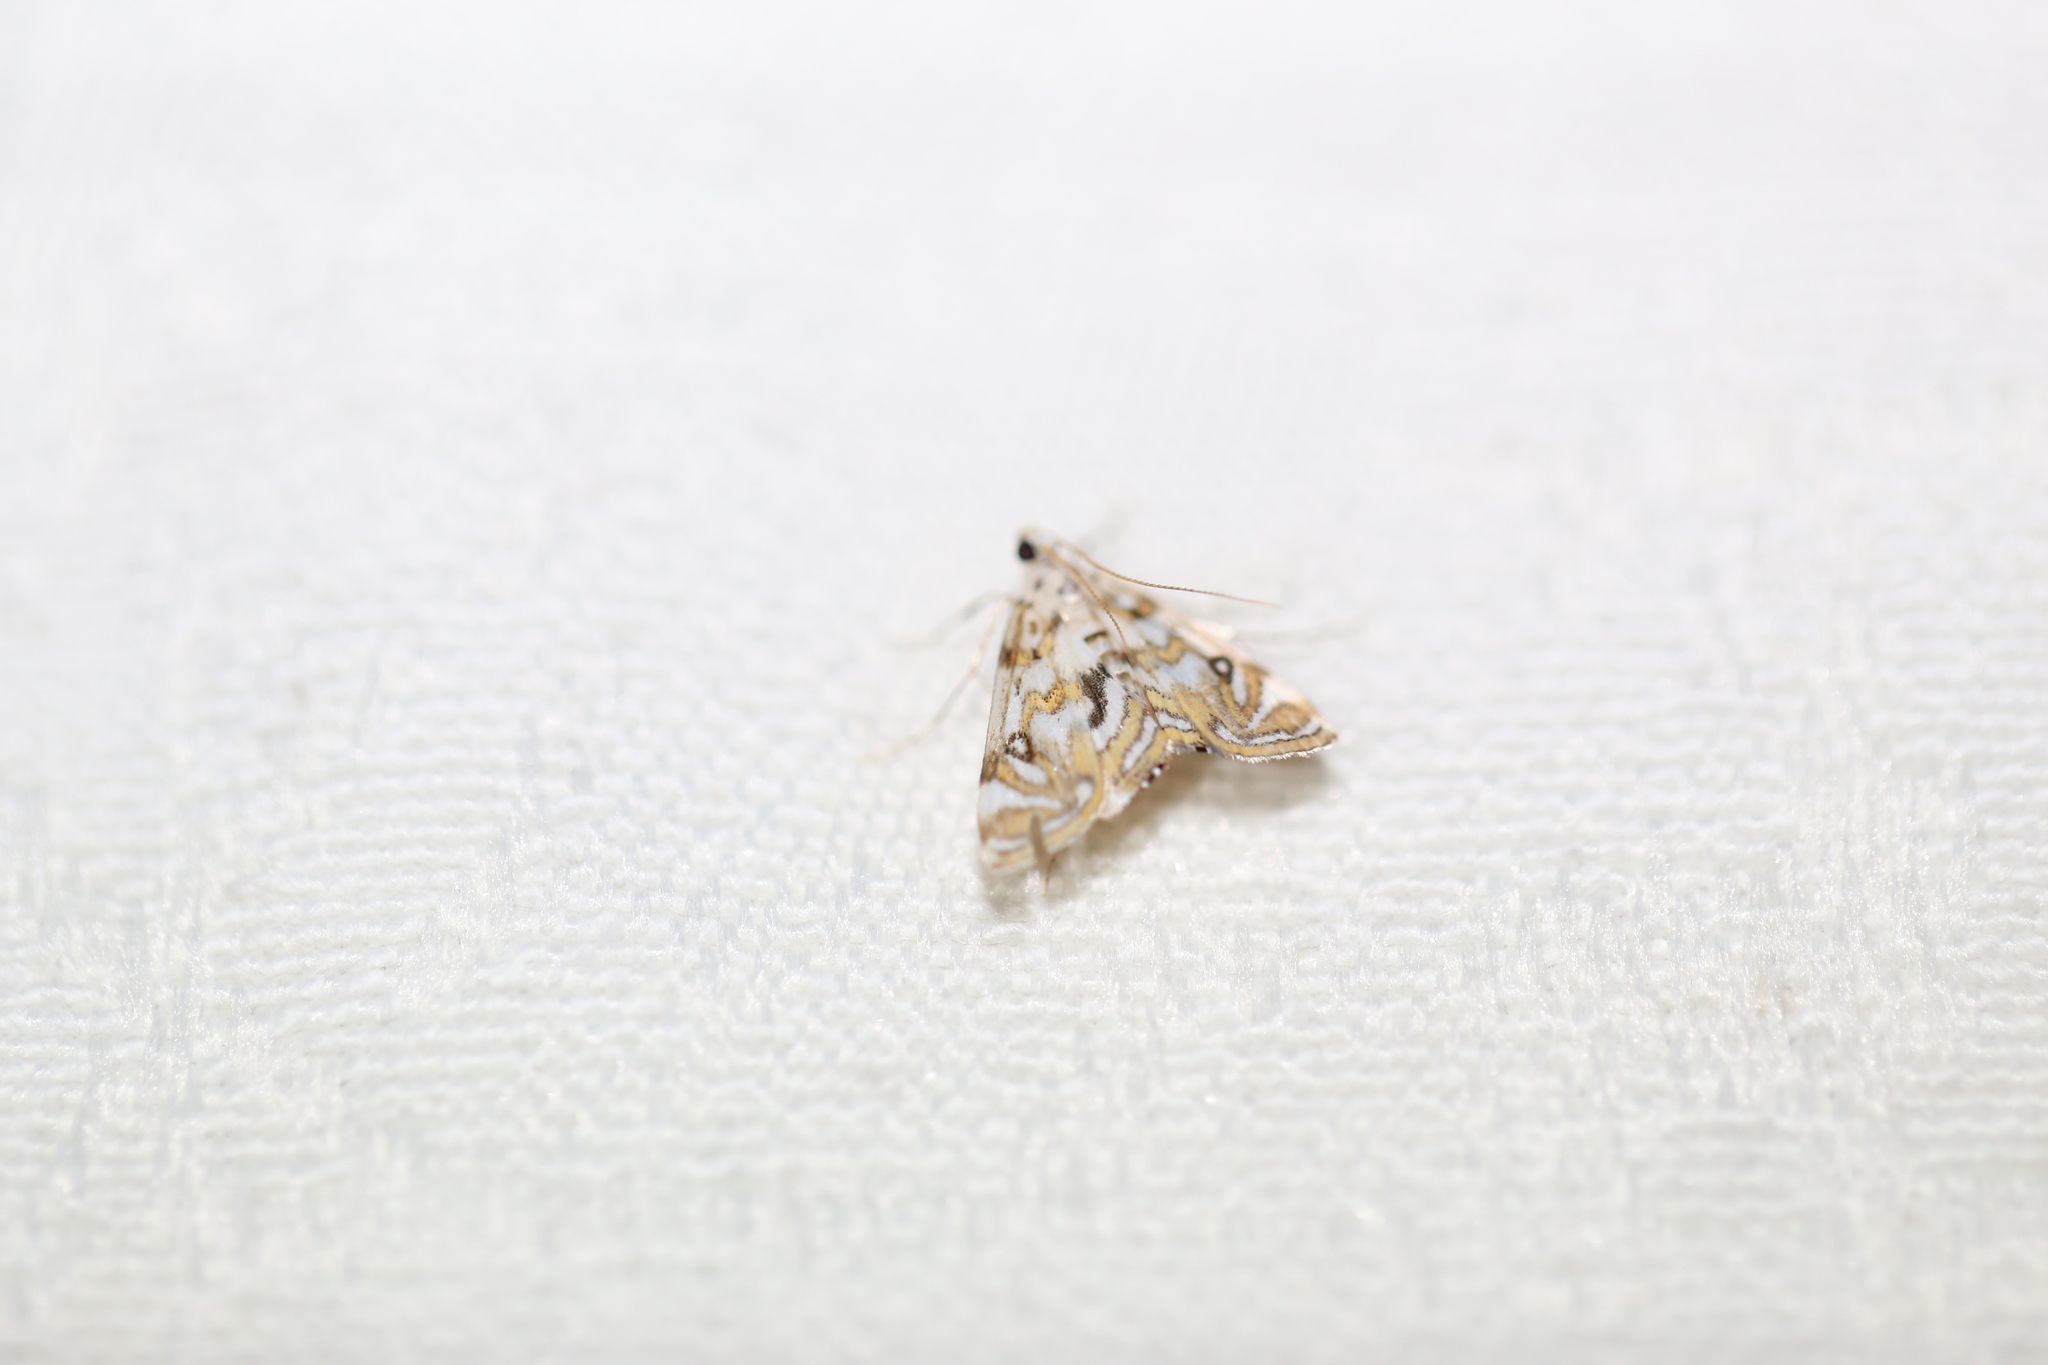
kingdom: Animalia
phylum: Arthropoda
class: Insecta
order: Lepidoptera
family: Crambidae
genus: Parapoynx
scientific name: Parapoynx polydectalis
